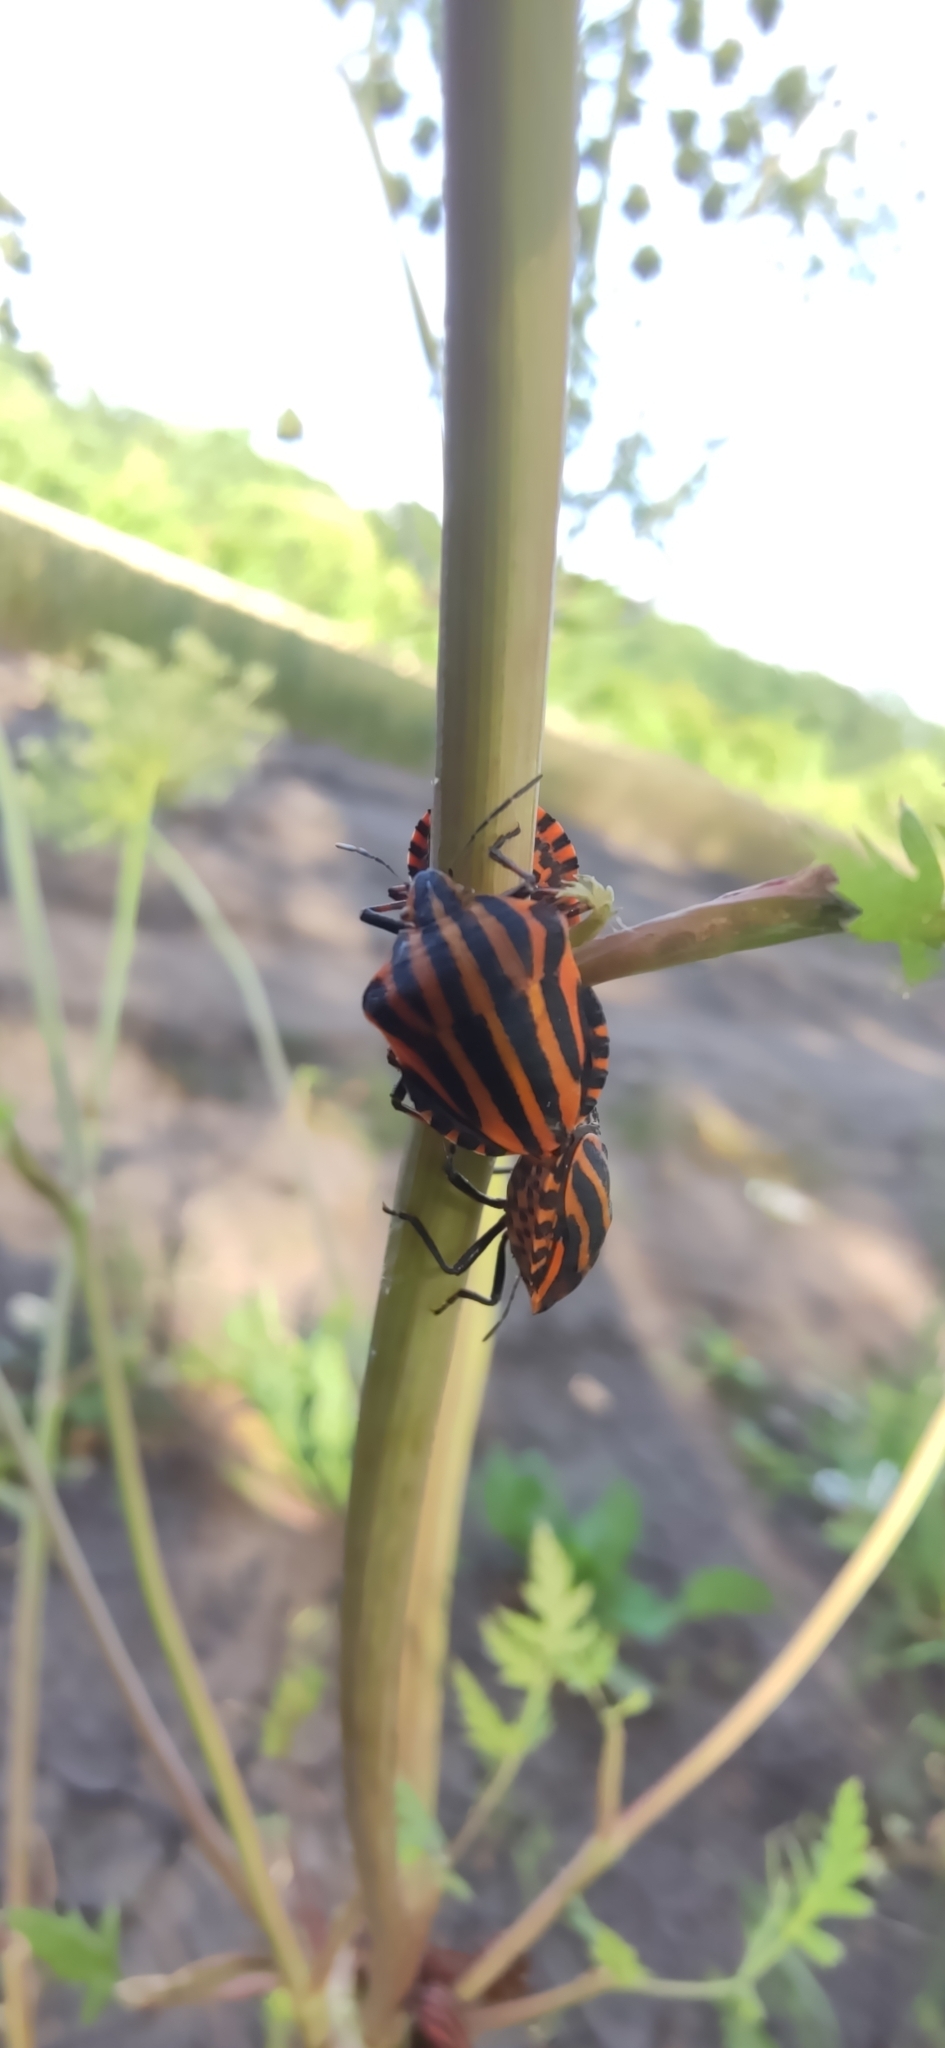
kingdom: Animalia
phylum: Arthropoda
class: Insecta
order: Hemiptera
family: Pentatomidae
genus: Graphosoma
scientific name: Graphosoma italicum
